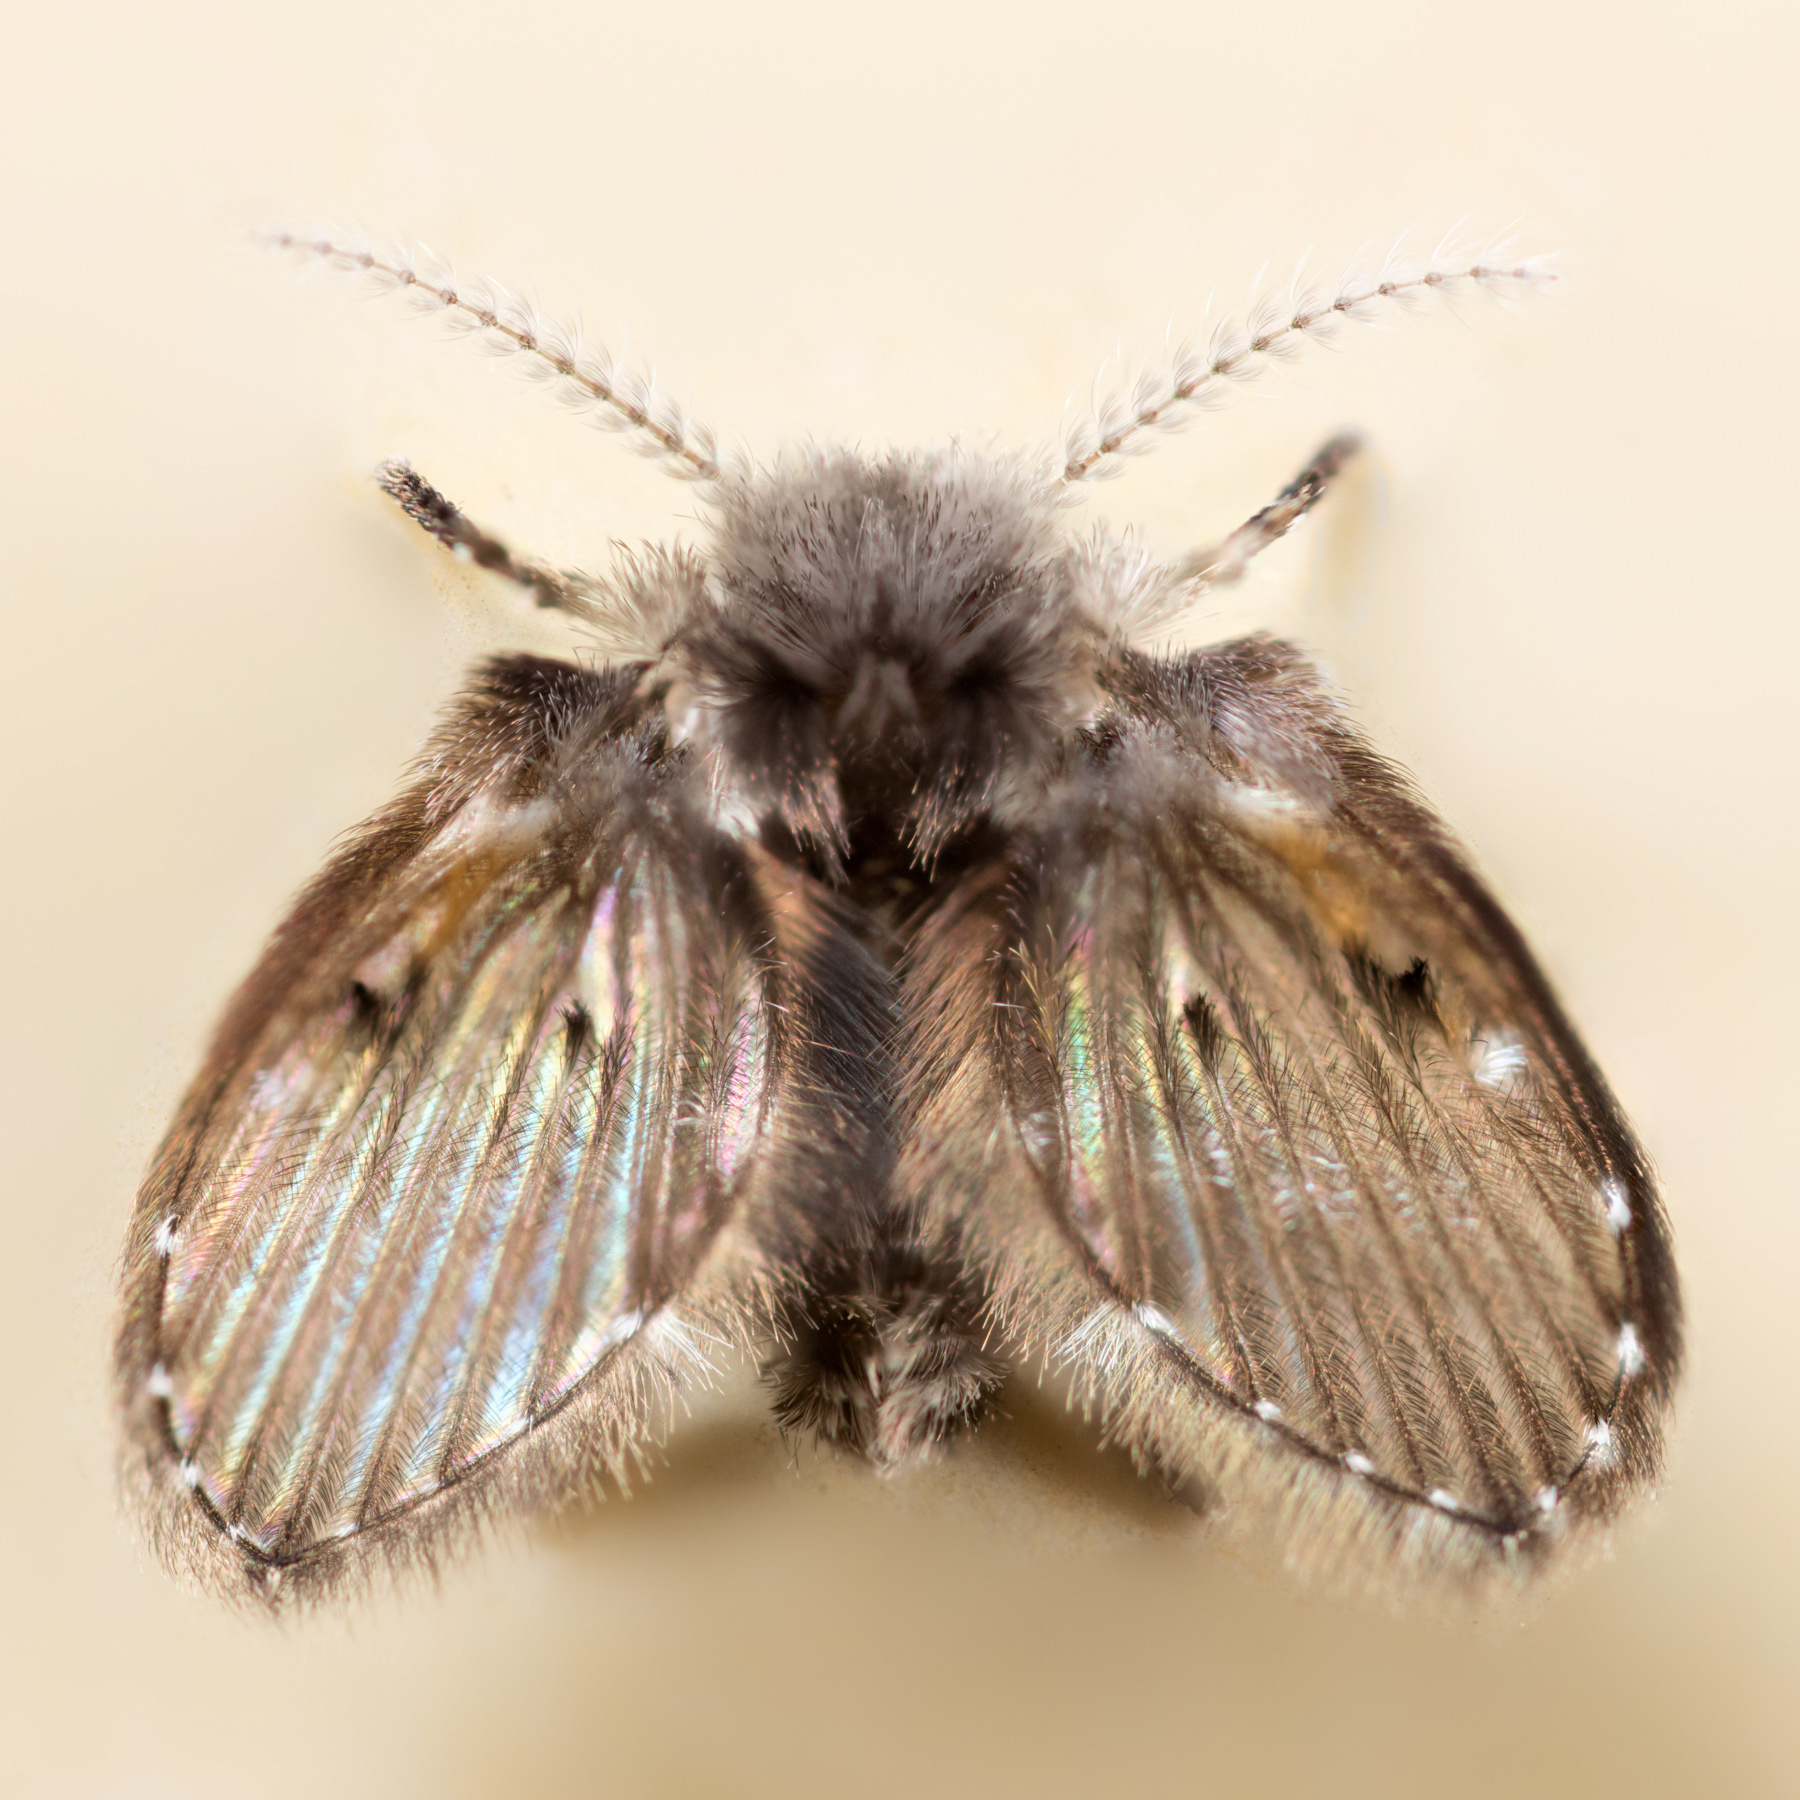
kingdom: Animalia
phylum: Arthropoda
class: Insecta
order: Diptera
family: Psychodidae
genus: Clogmia
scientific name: Clogmia albipunctatus
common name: White-spotted moth fly
